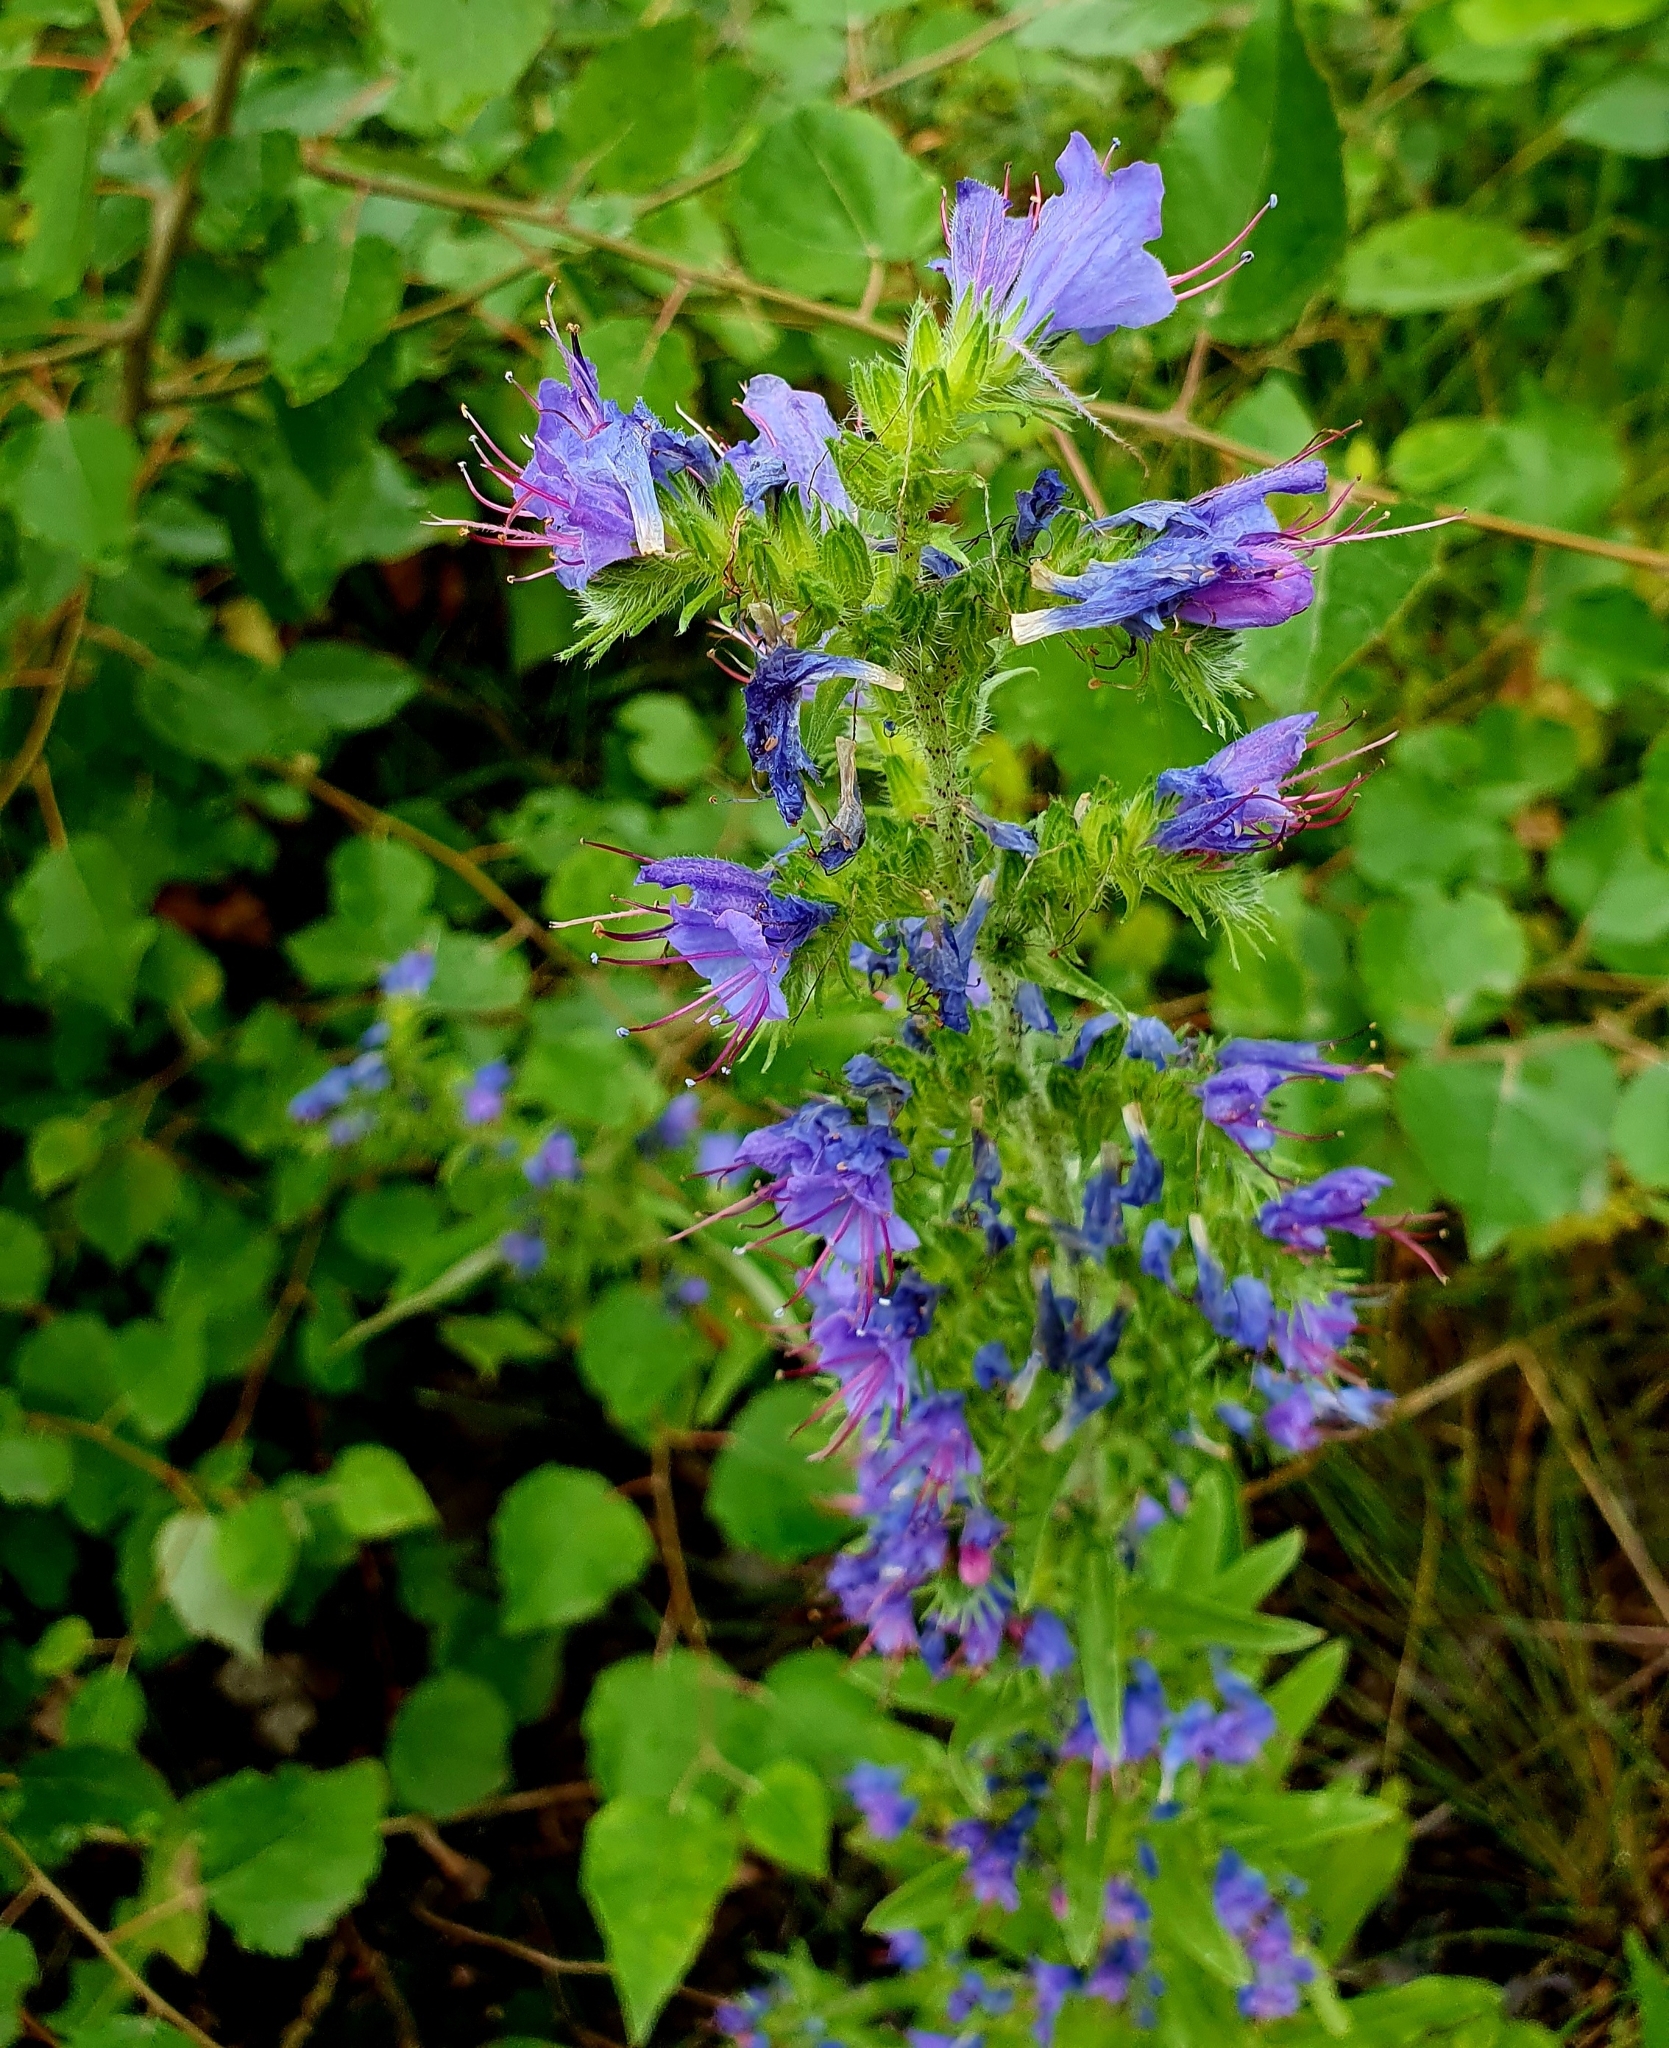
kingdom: Plantae
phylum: Tracheophyta
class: Magnoliopsida
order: Boraginales
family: Boraginaceae
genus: Echium
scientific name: Echium vulgare
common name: Common viper's bugloss
